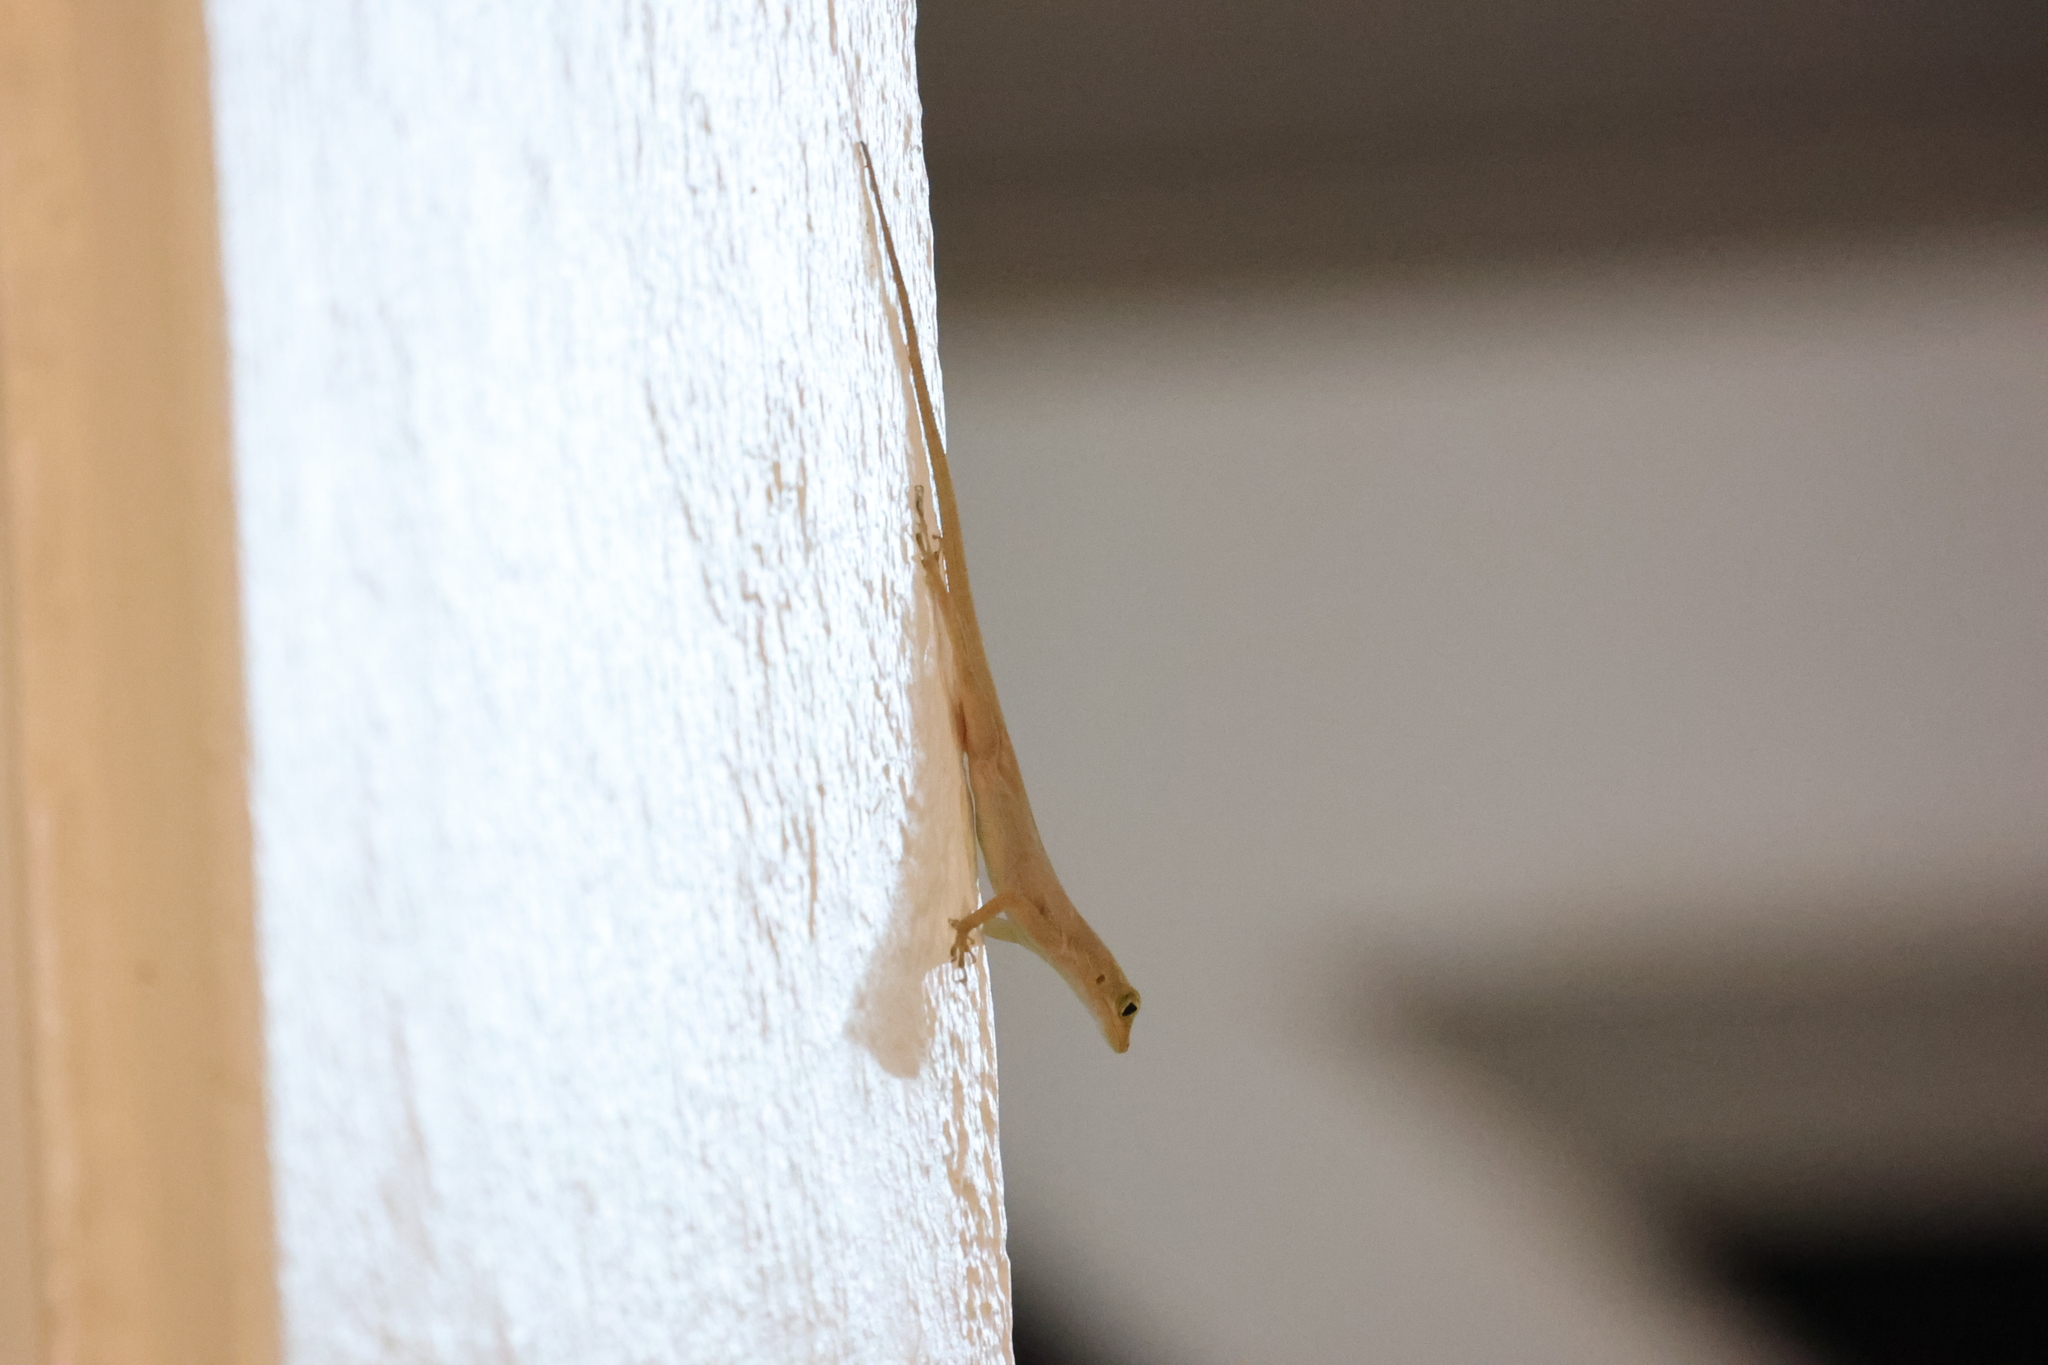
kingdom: Animalia
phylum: Chordata
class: Squamata
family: Dactyloidae
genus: Anolis
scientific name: Anolis marmoratus
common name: Guadeloupe anole
